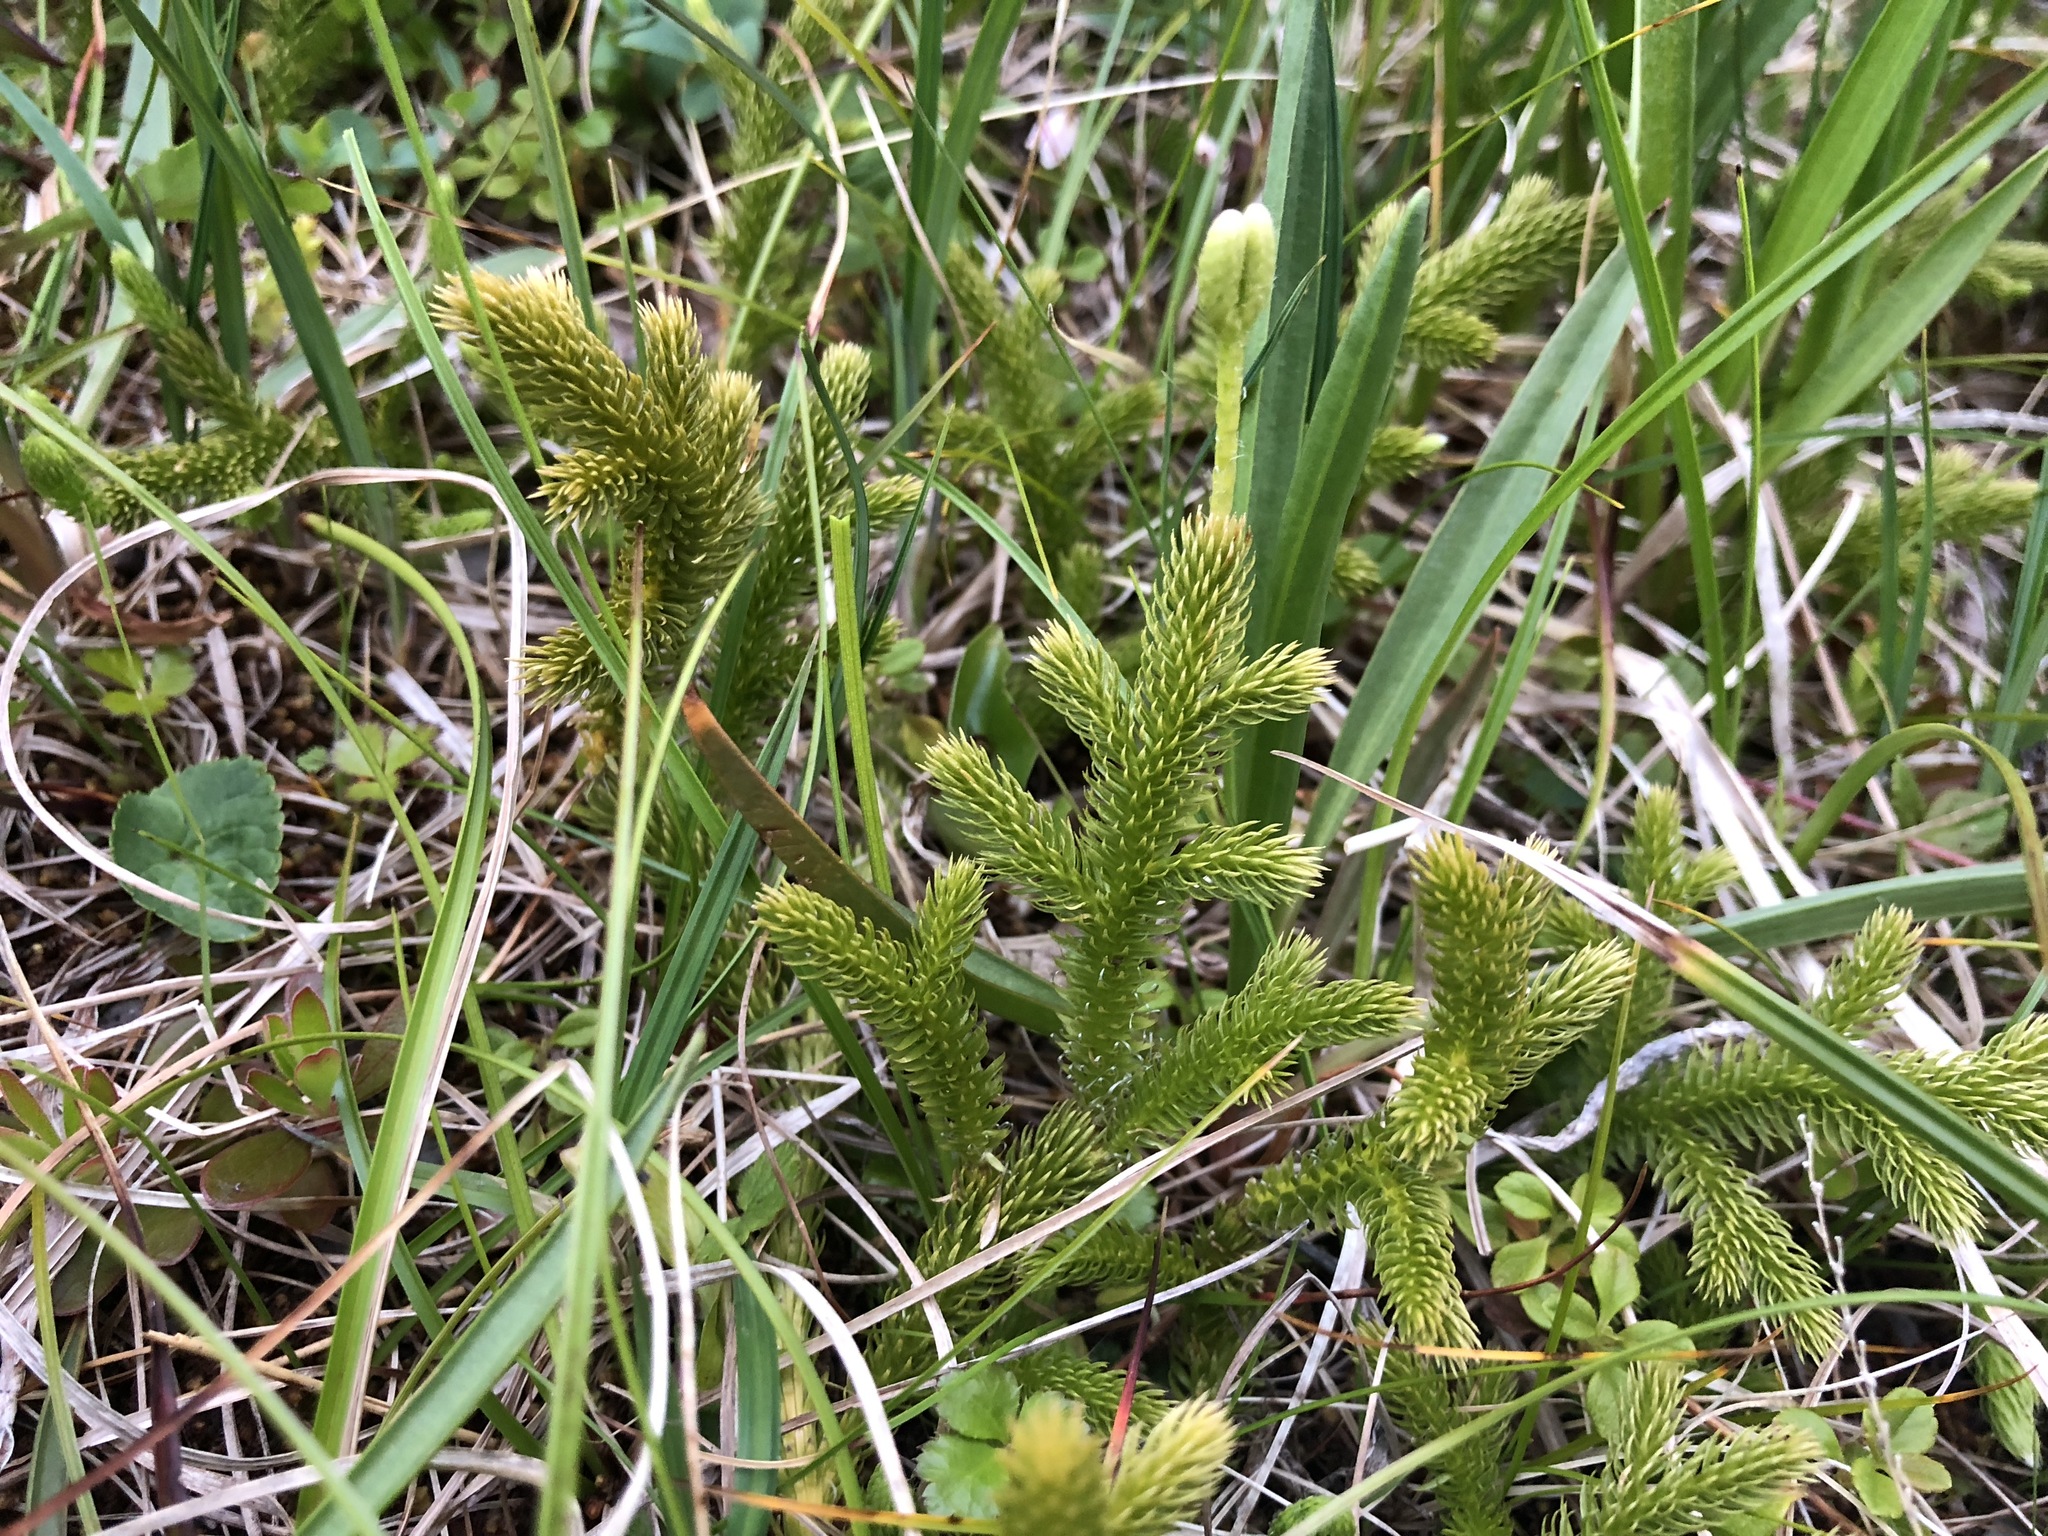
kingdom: Plantae
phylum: Tracheophyta
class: Lycopodiopsida
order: Lycopodiales
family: Lycopodiaceae
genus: Lycopodium
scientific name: Lycopodium clavatum
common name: Stag's-horn clubmoss
